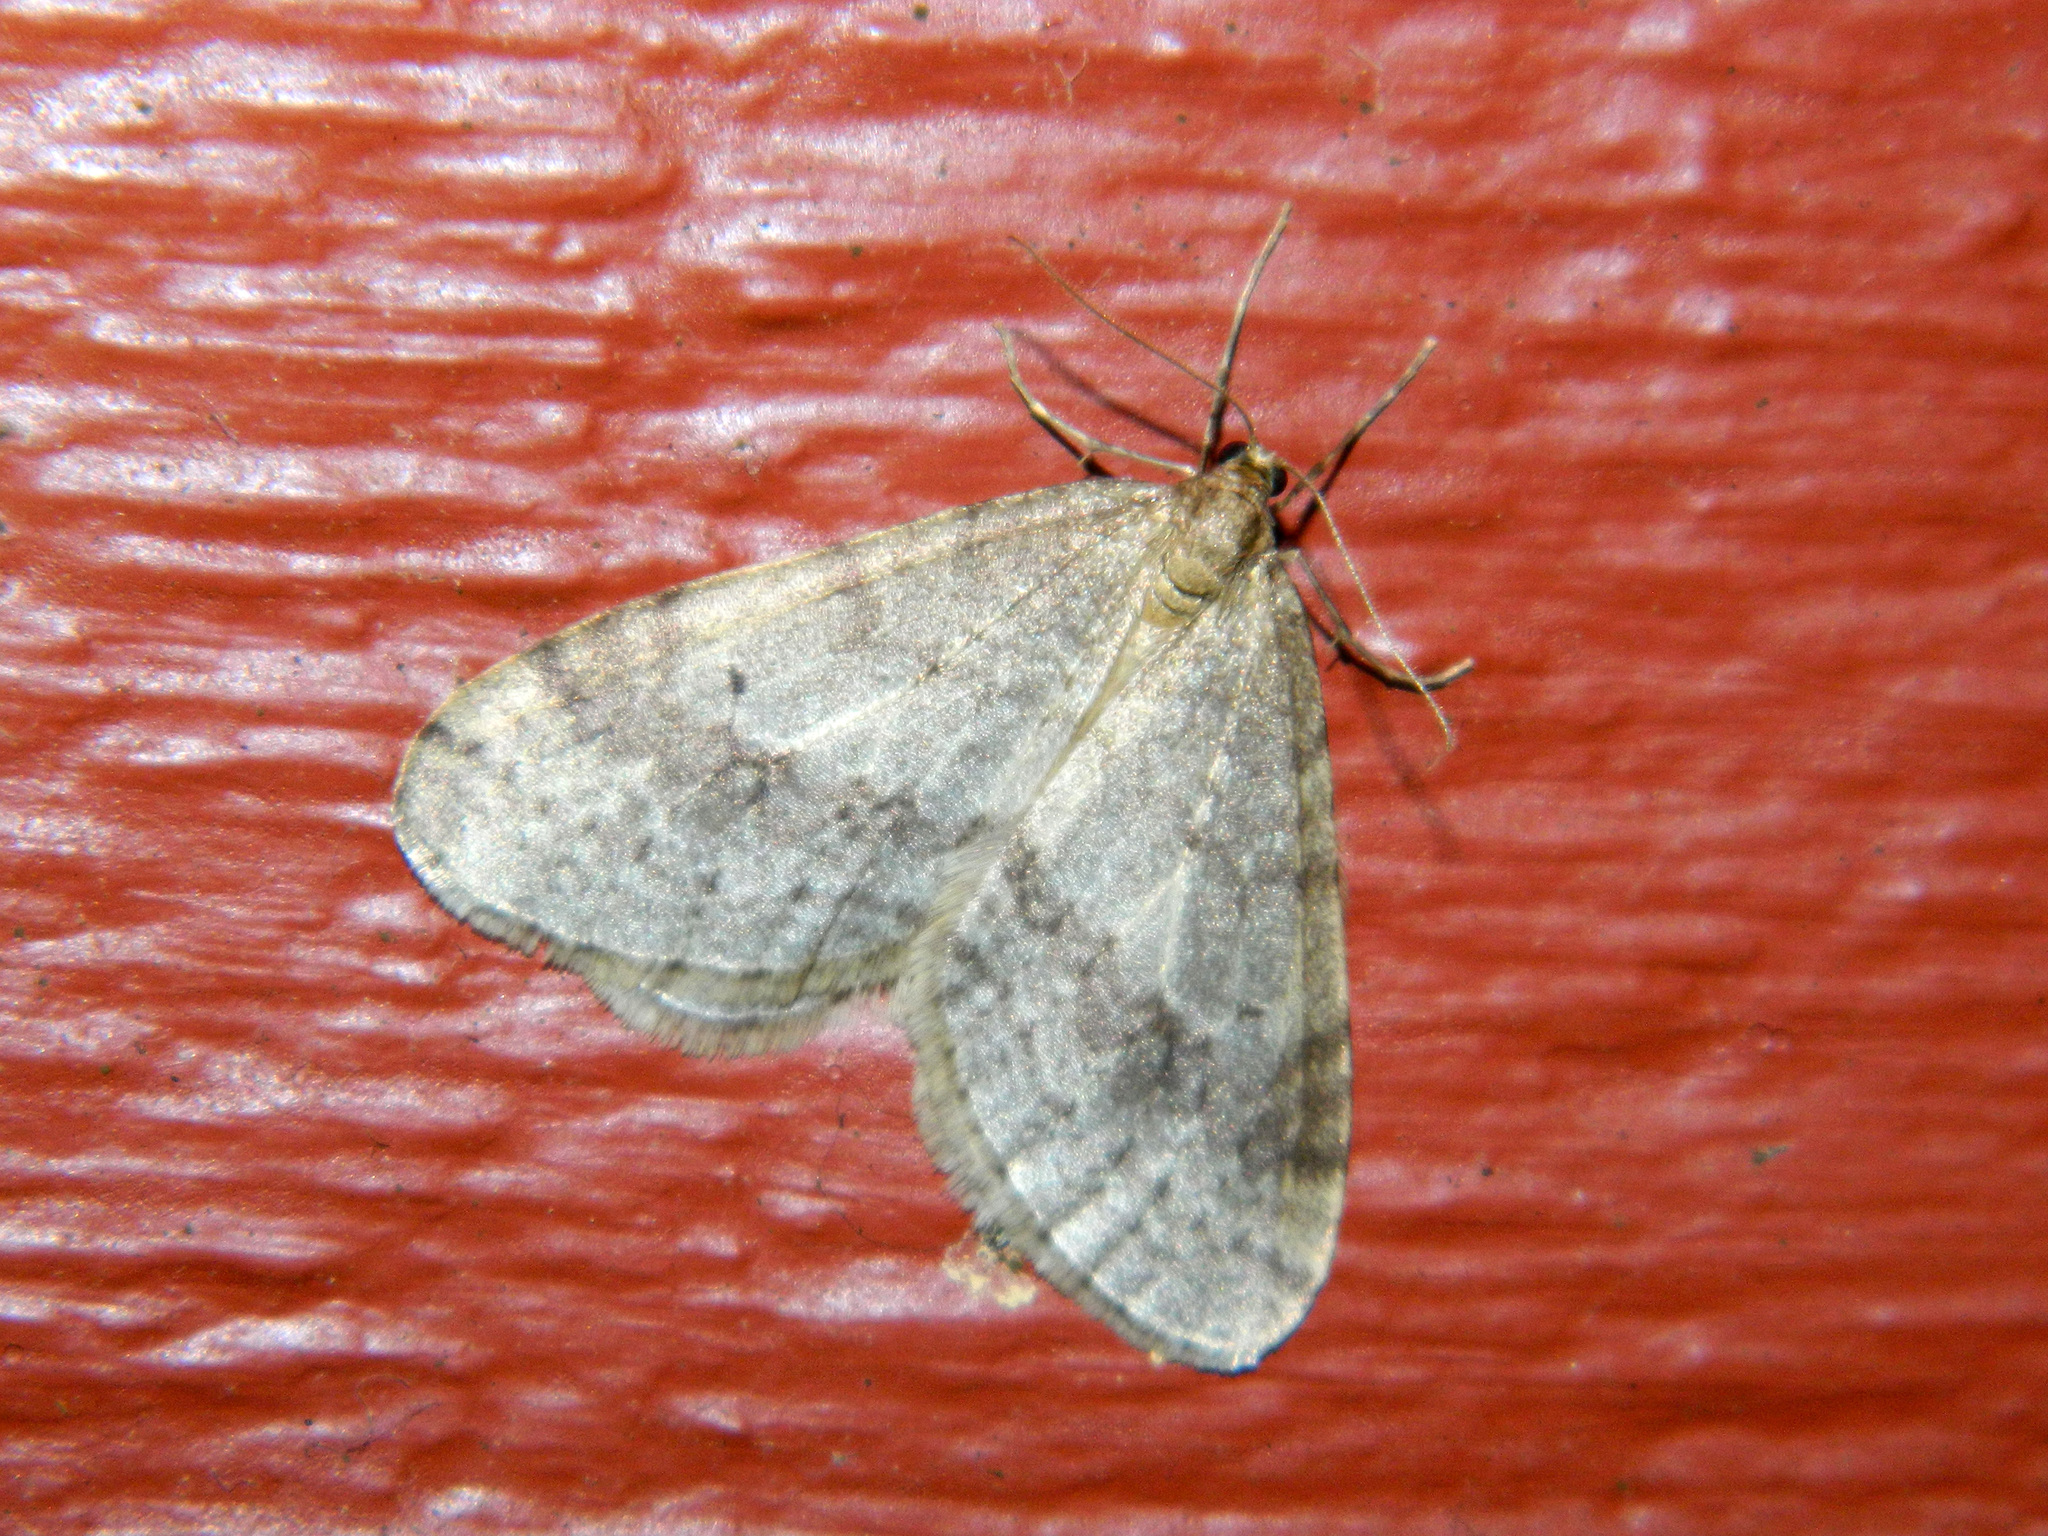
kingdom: Animalia
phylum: Arthropoda
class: Insecta
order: Lepidoptera
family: Geometridae
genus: Operophtera
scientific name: Operophtera bruceata
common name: Bruce spanworm
